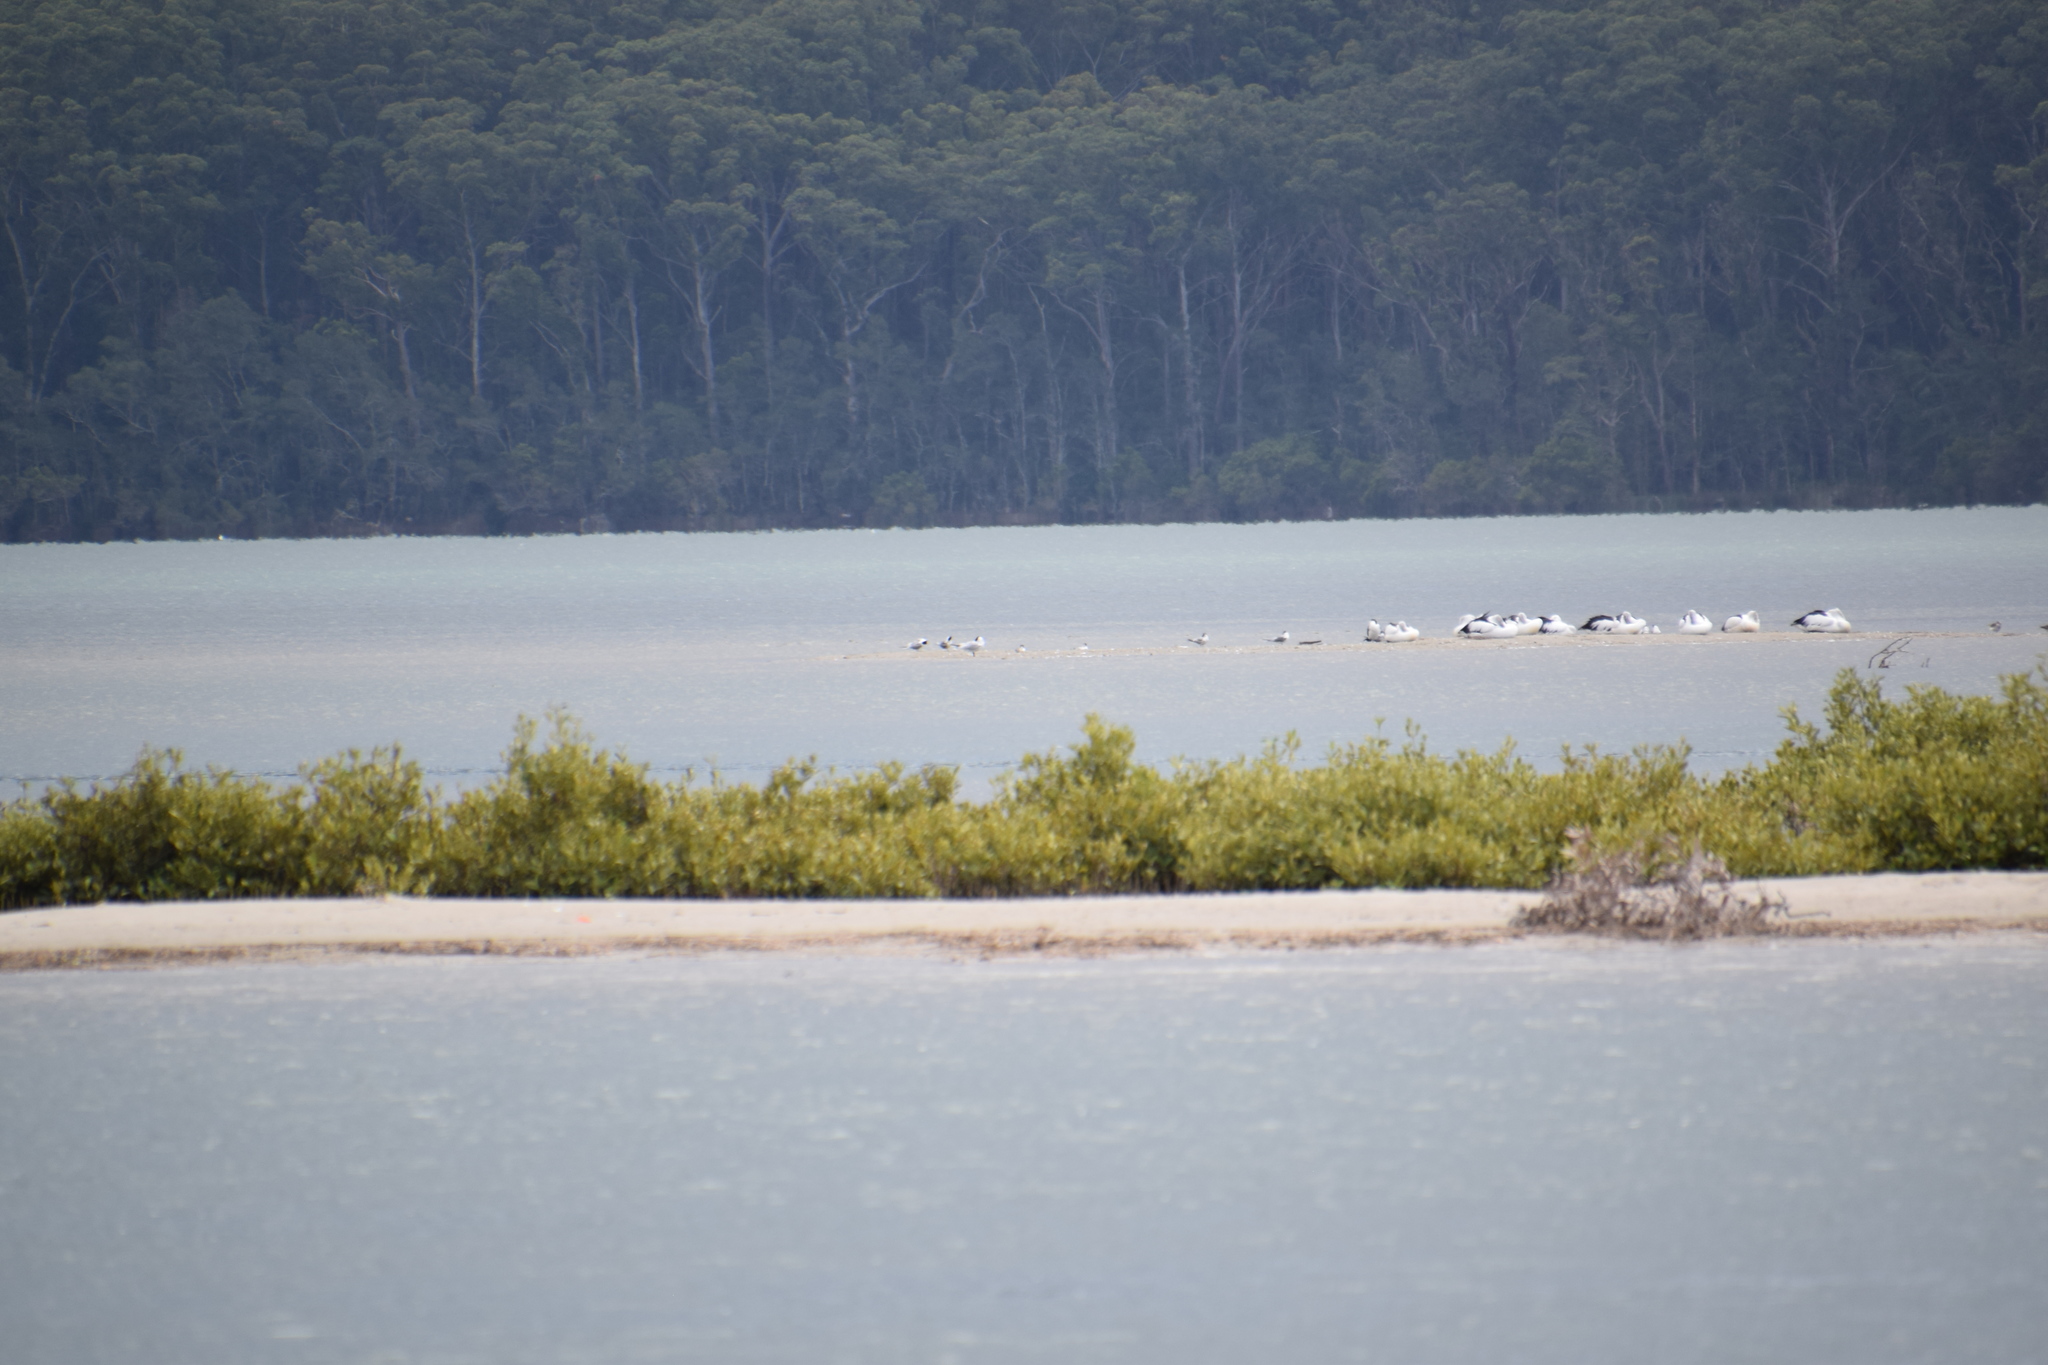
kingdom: Animalia
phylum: Chordata
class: Aves
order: Pelecaniformes
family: Pelecanidae
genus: Pelecanus
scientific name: Pelecanus conspicillatus
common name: Australian pelican
